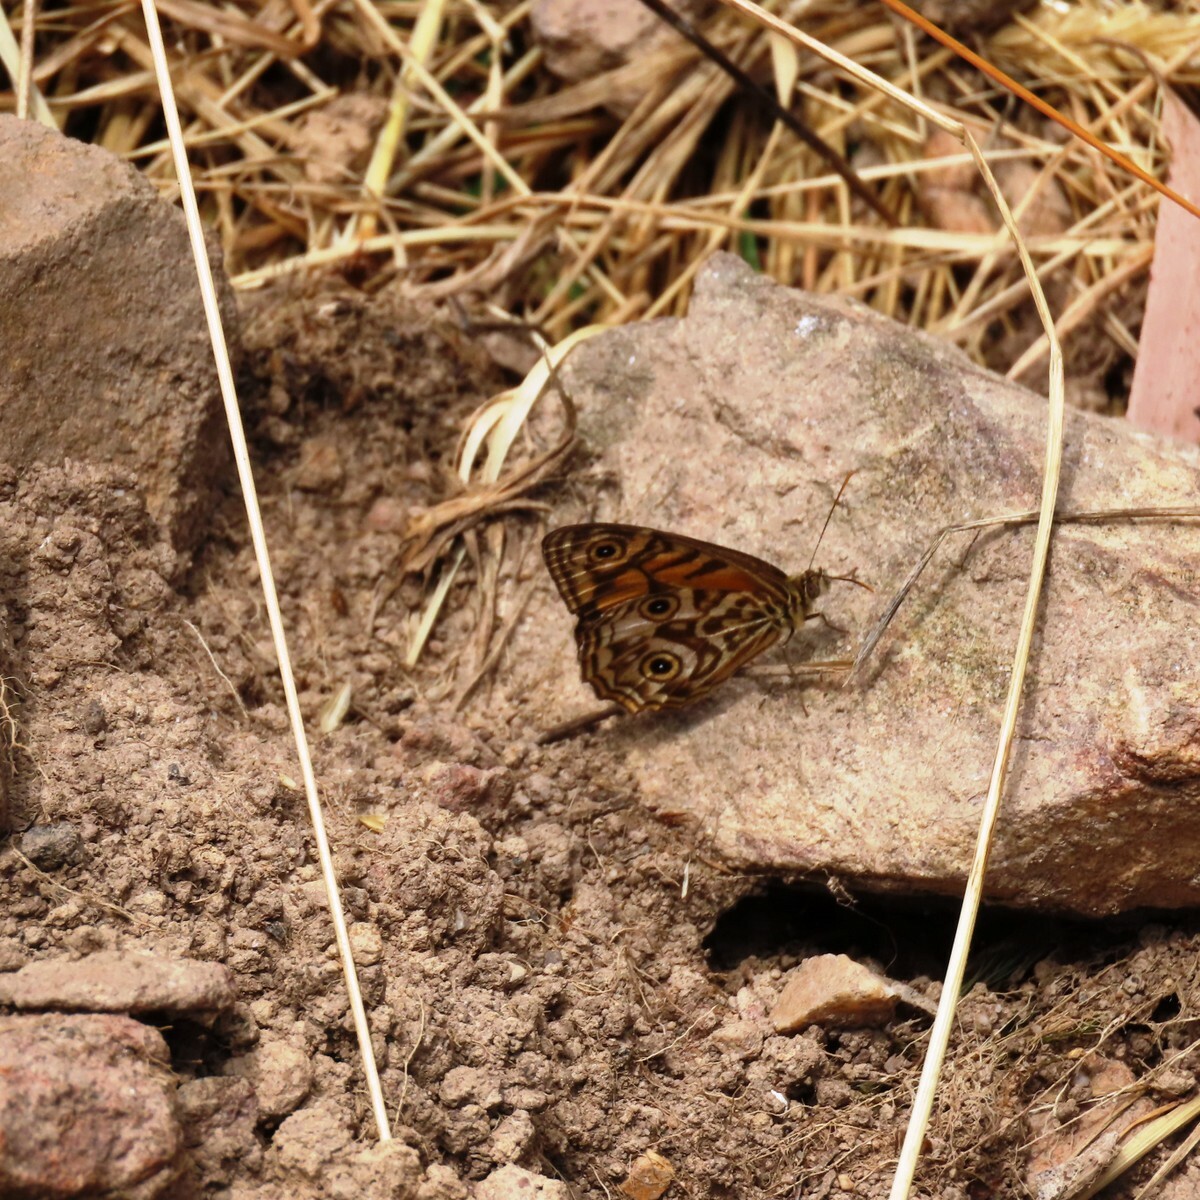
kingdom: Animalia
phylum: Arthropoda
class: Insecta
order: Lepidoptera
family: Nymphalidae
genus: Geitoneura
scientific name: Geitoneura acantha
